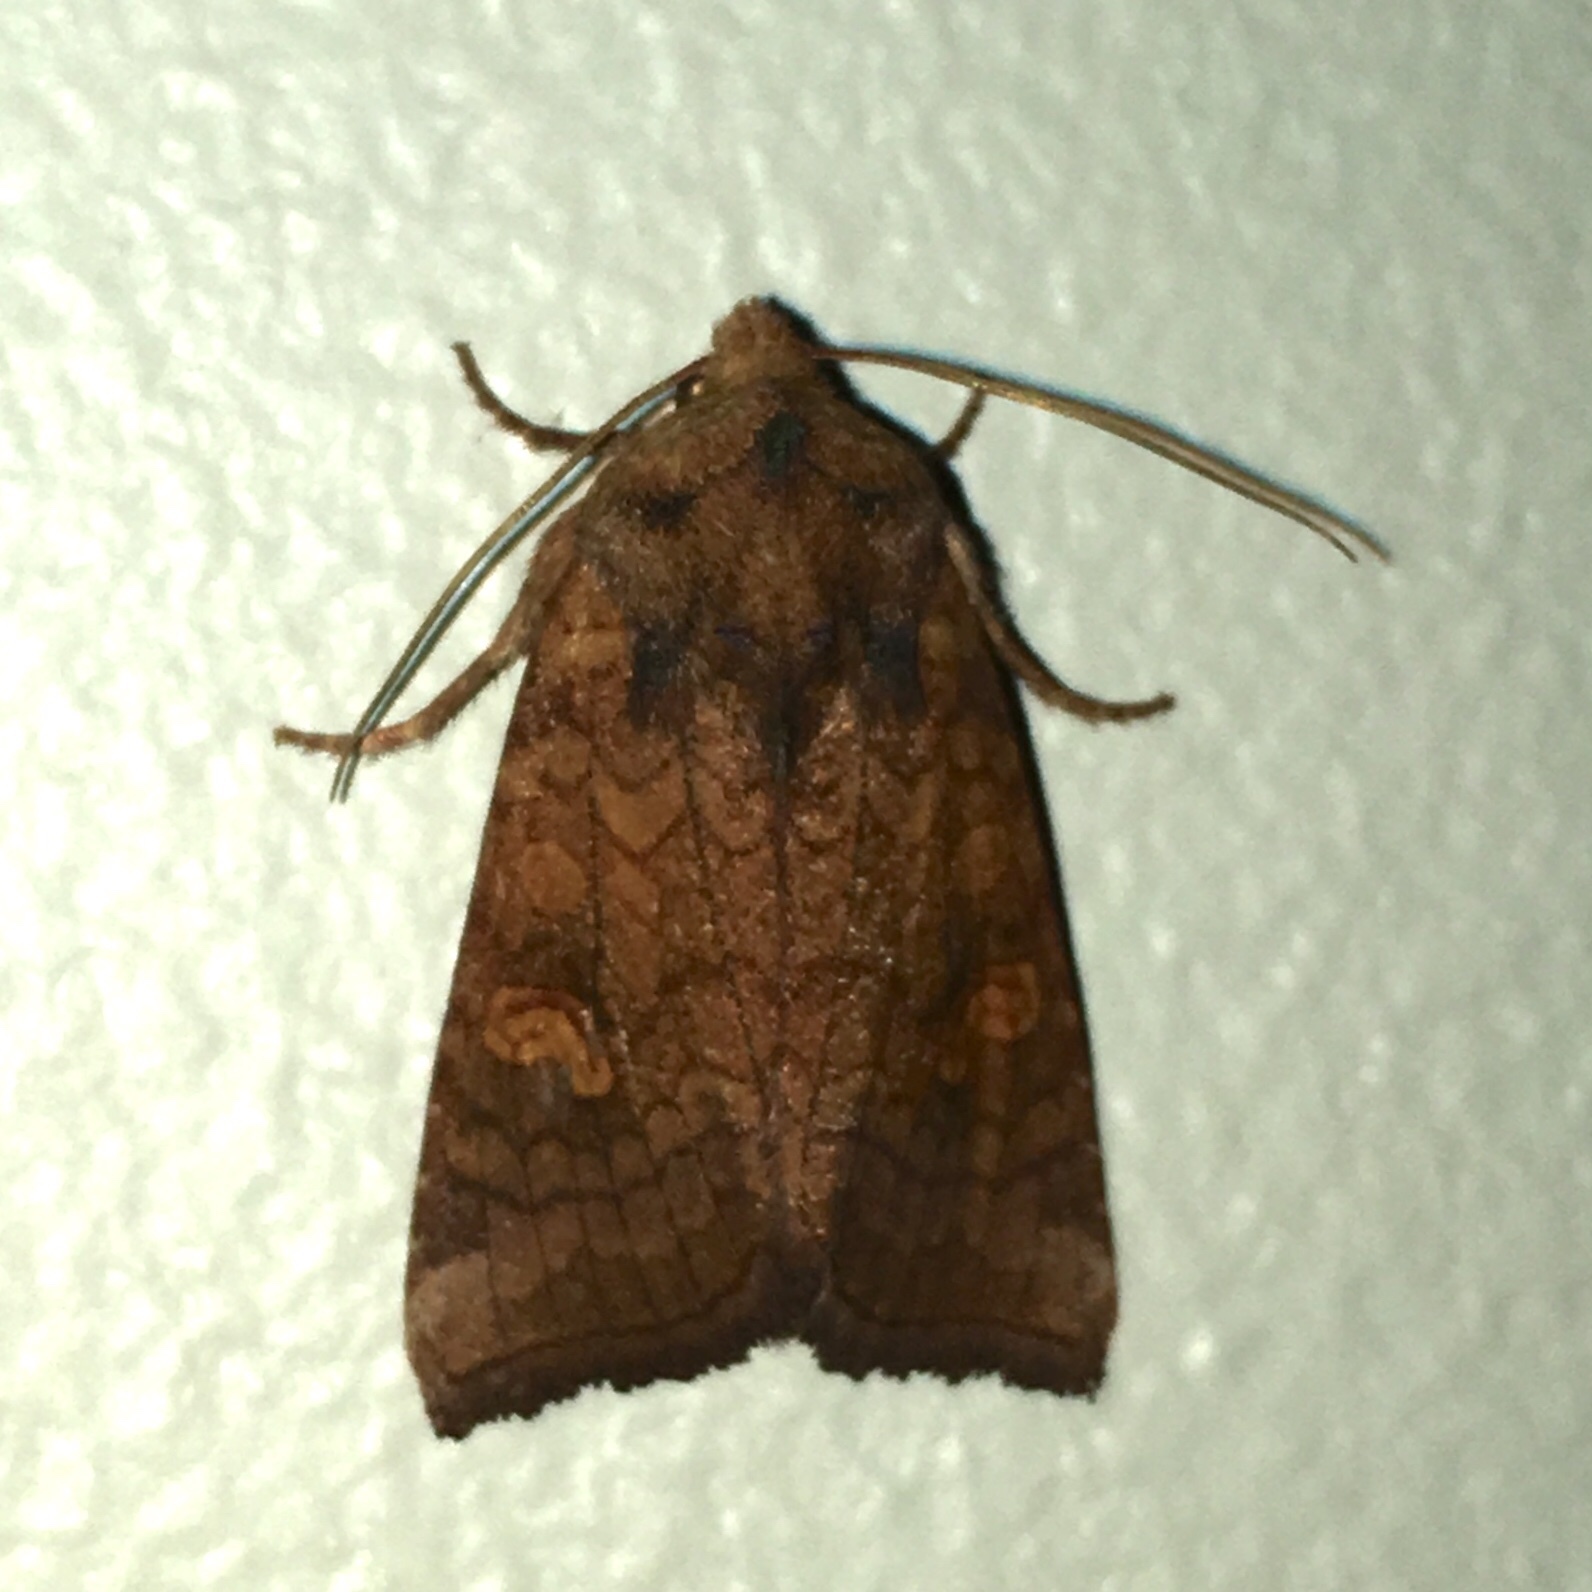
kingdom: Animalia
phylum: Arthropoda
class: Insecta
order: Lepidoptera
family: Noctuidae
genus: Amphipoea
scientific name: Amphipoea americana
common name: American ear moth
